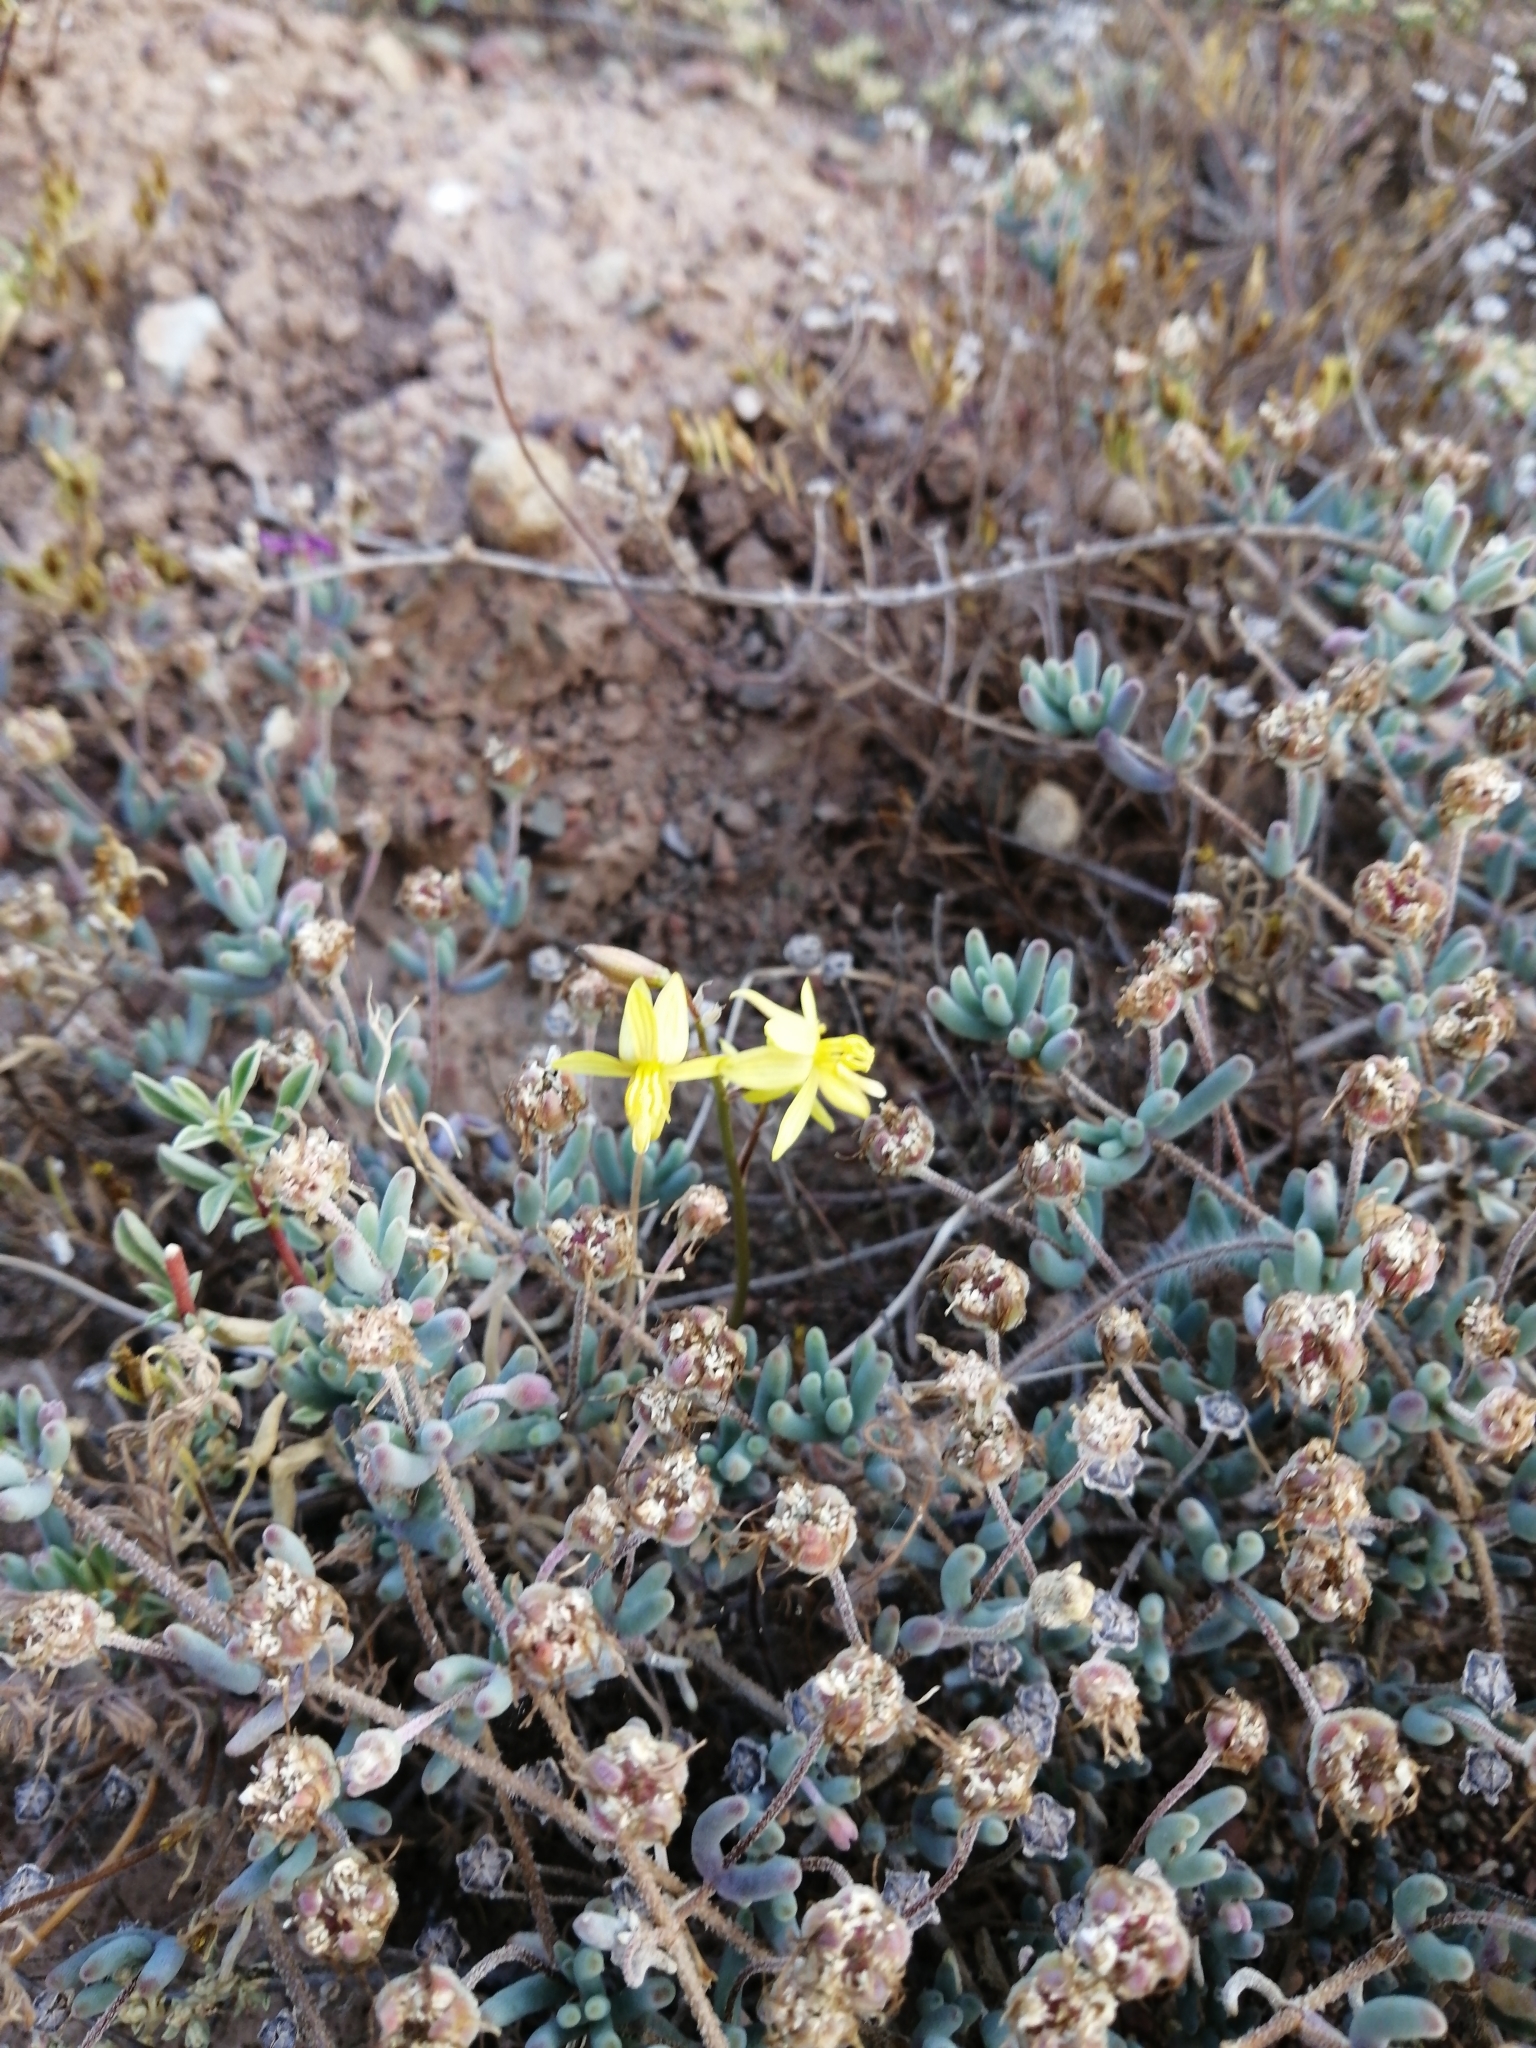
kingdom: Plantae
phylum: Tracheophyta
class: Liliopsida
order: Asparagales
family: Tecophilaeaceae
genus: Cyanella
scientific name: Cyanella lutea
